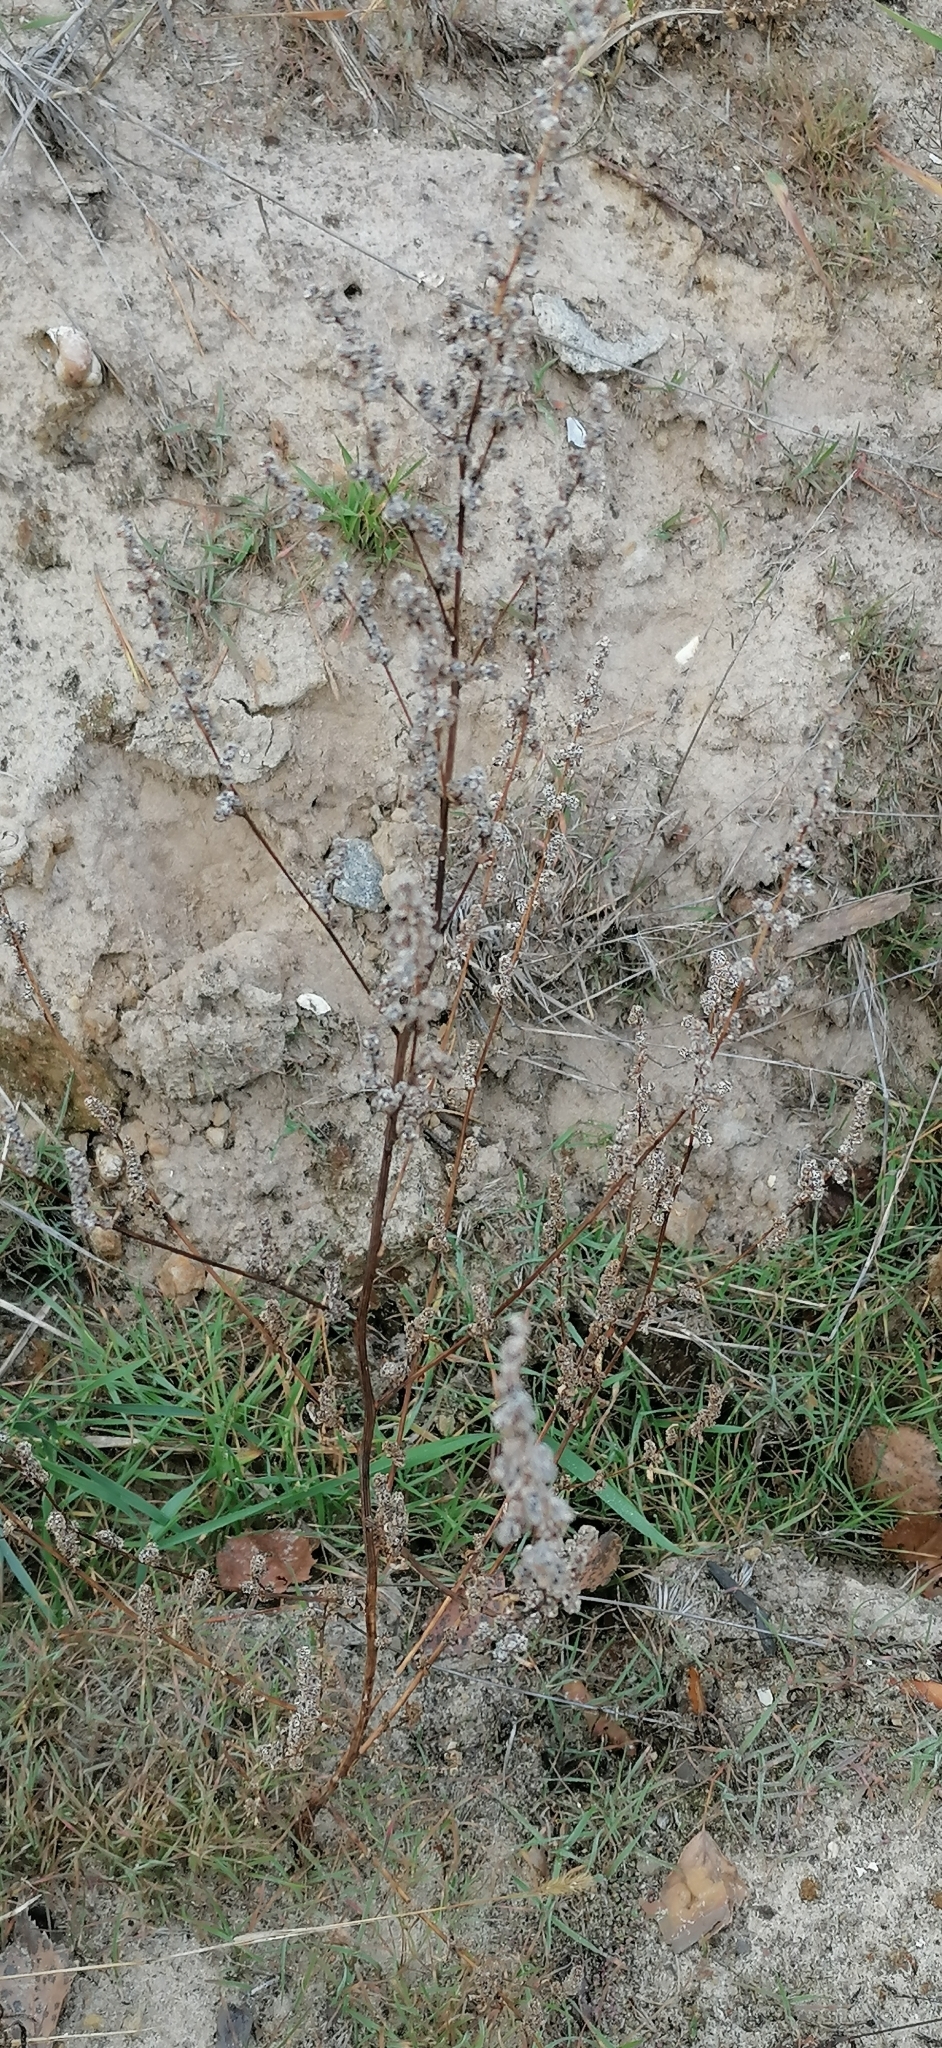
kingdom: Plantae
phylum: Tracheophyta
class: Magnoliopsida
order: Lamiales
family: Lamiaceae
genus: Perilla
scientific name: Perilla frutescens
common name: Perilla
